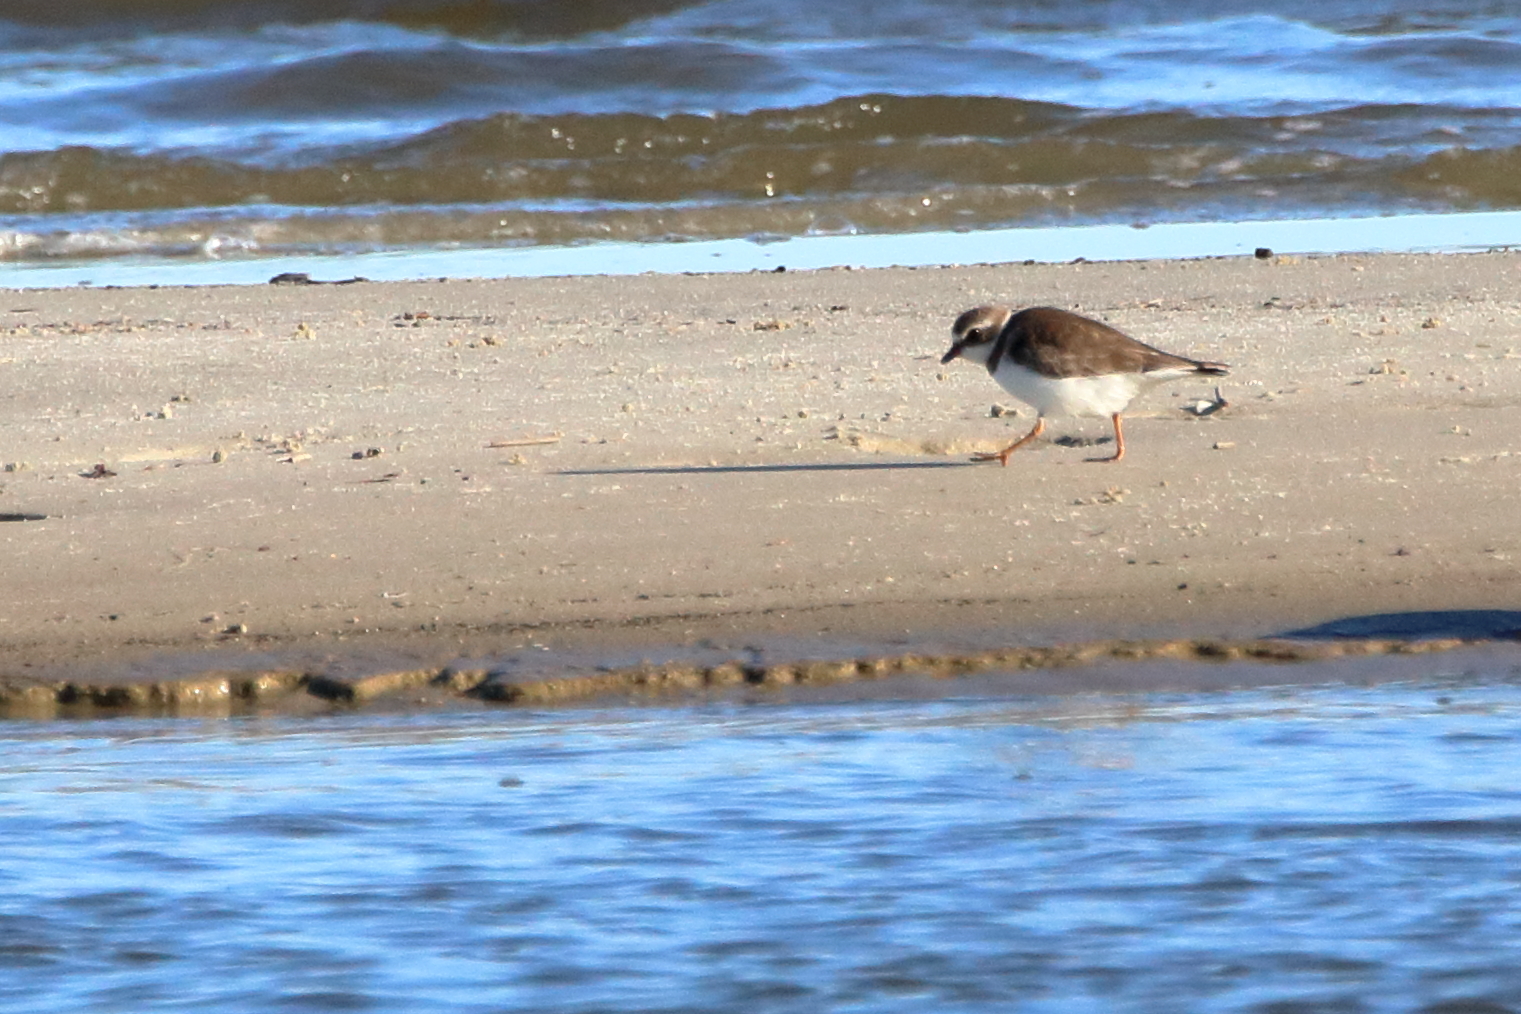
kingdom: Animalia
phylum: Chordata
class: Aves
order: Charadriiformes
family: Charadriidae
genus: Charadrius
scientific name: Charadrius semipalmatus
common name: Semipalmated plover
